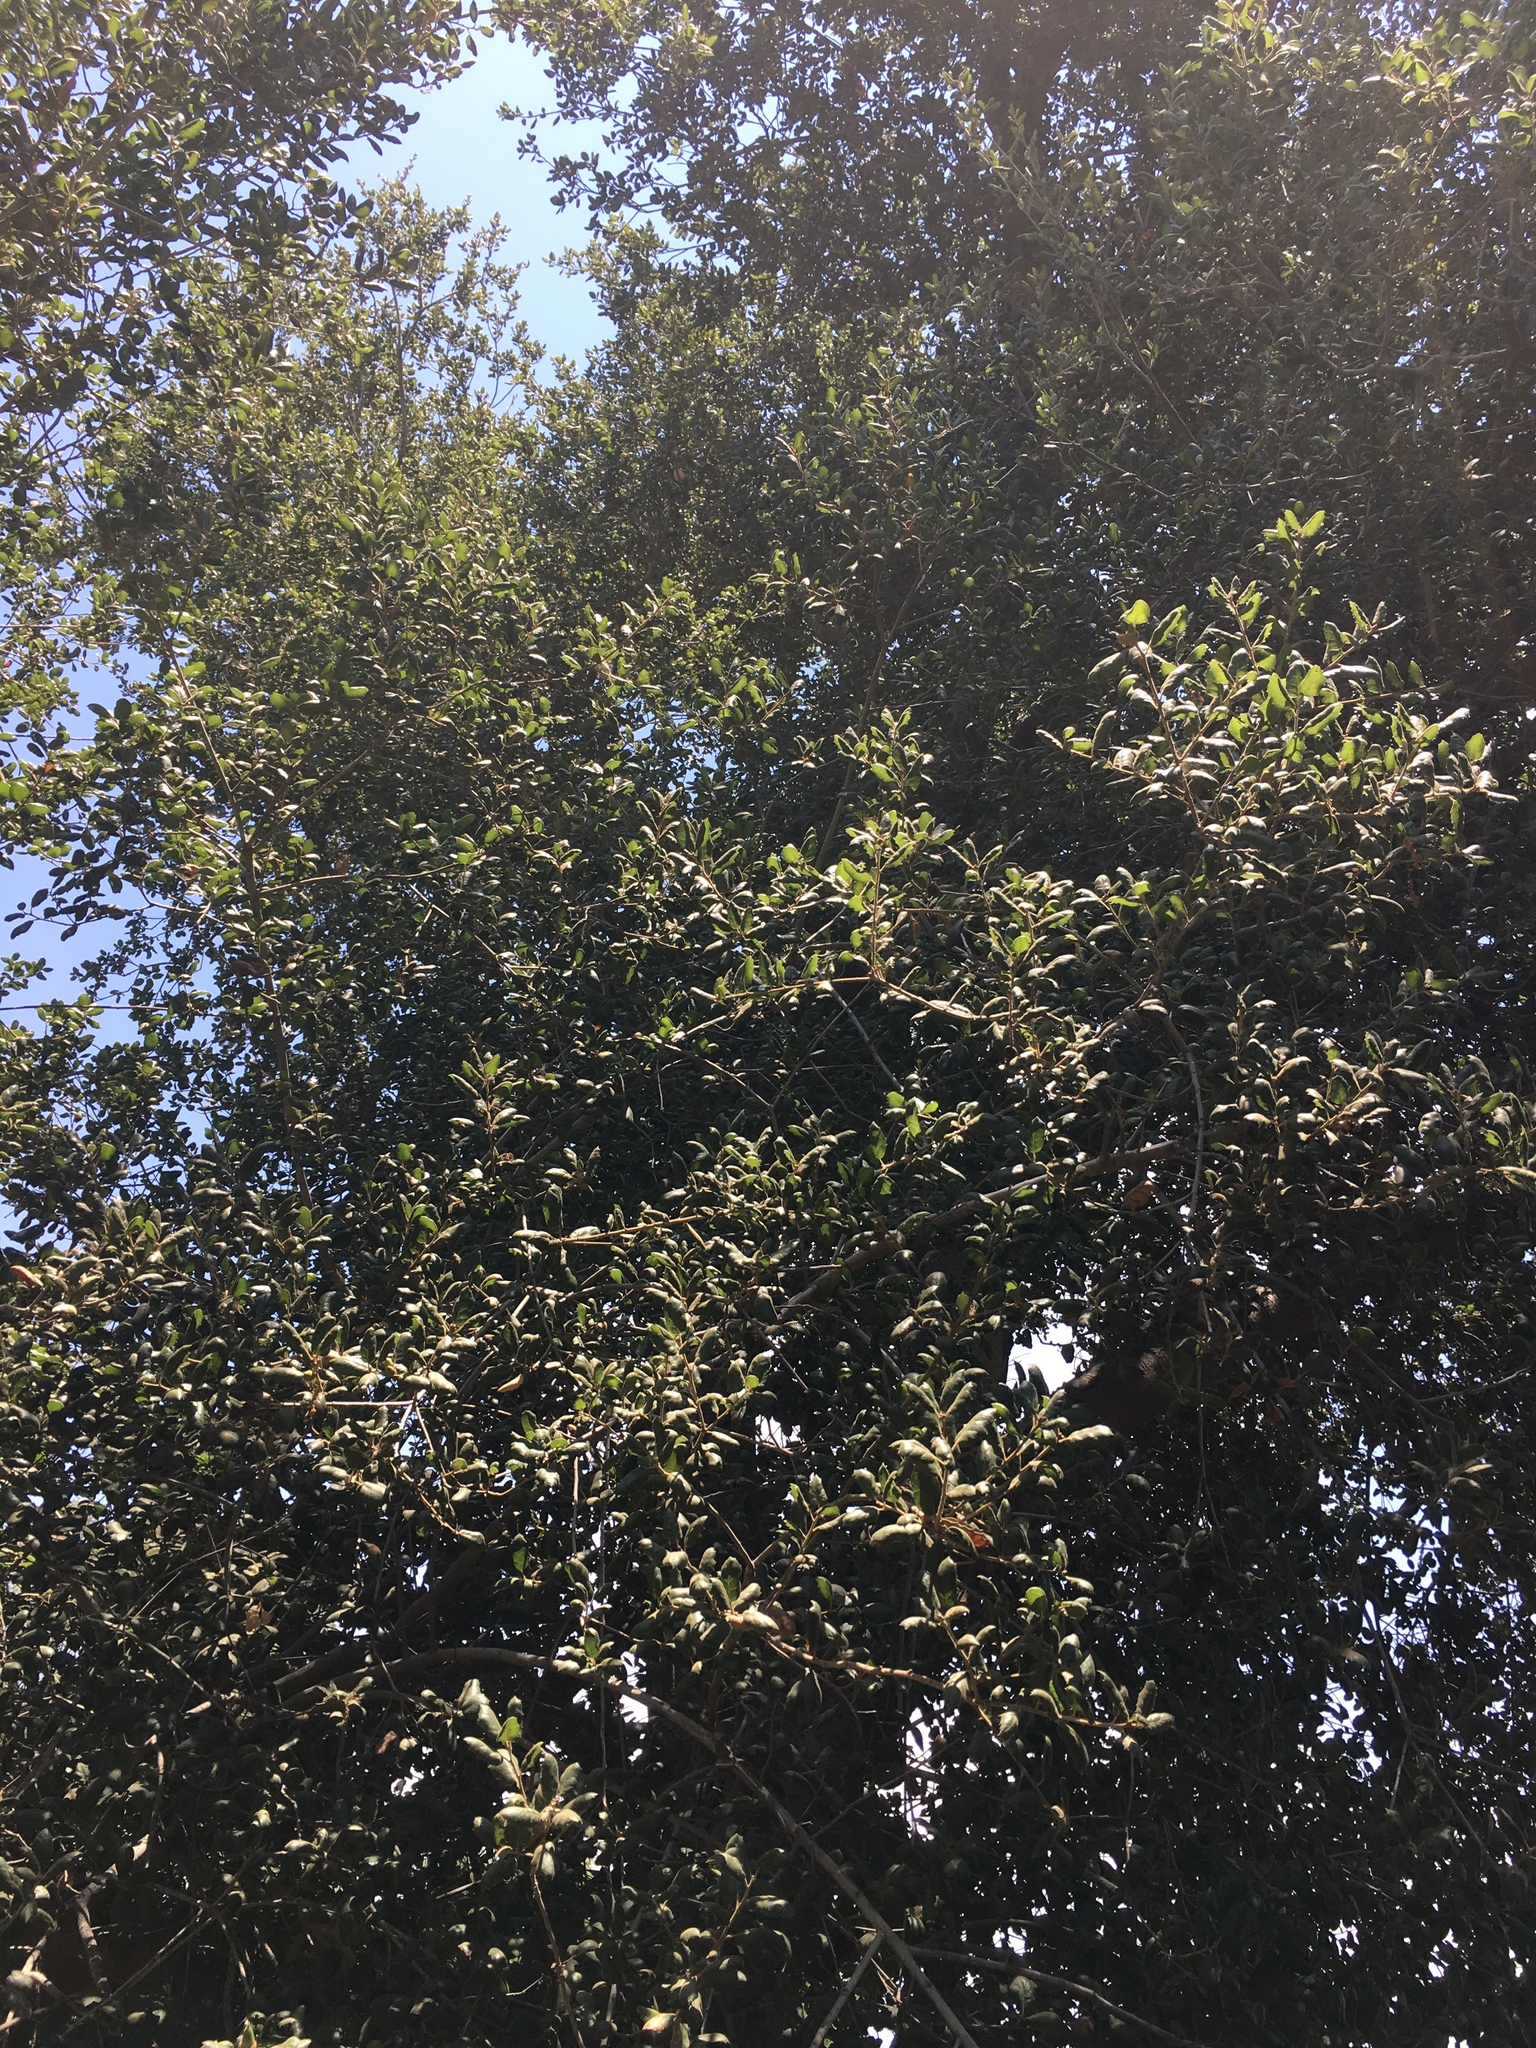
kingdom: Plantae
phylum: Tracheophyta
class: Magnoliopsida
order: Fagales
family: Fagaceae
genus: Quercus
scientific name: Quercus agrifolia
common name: California live oak
